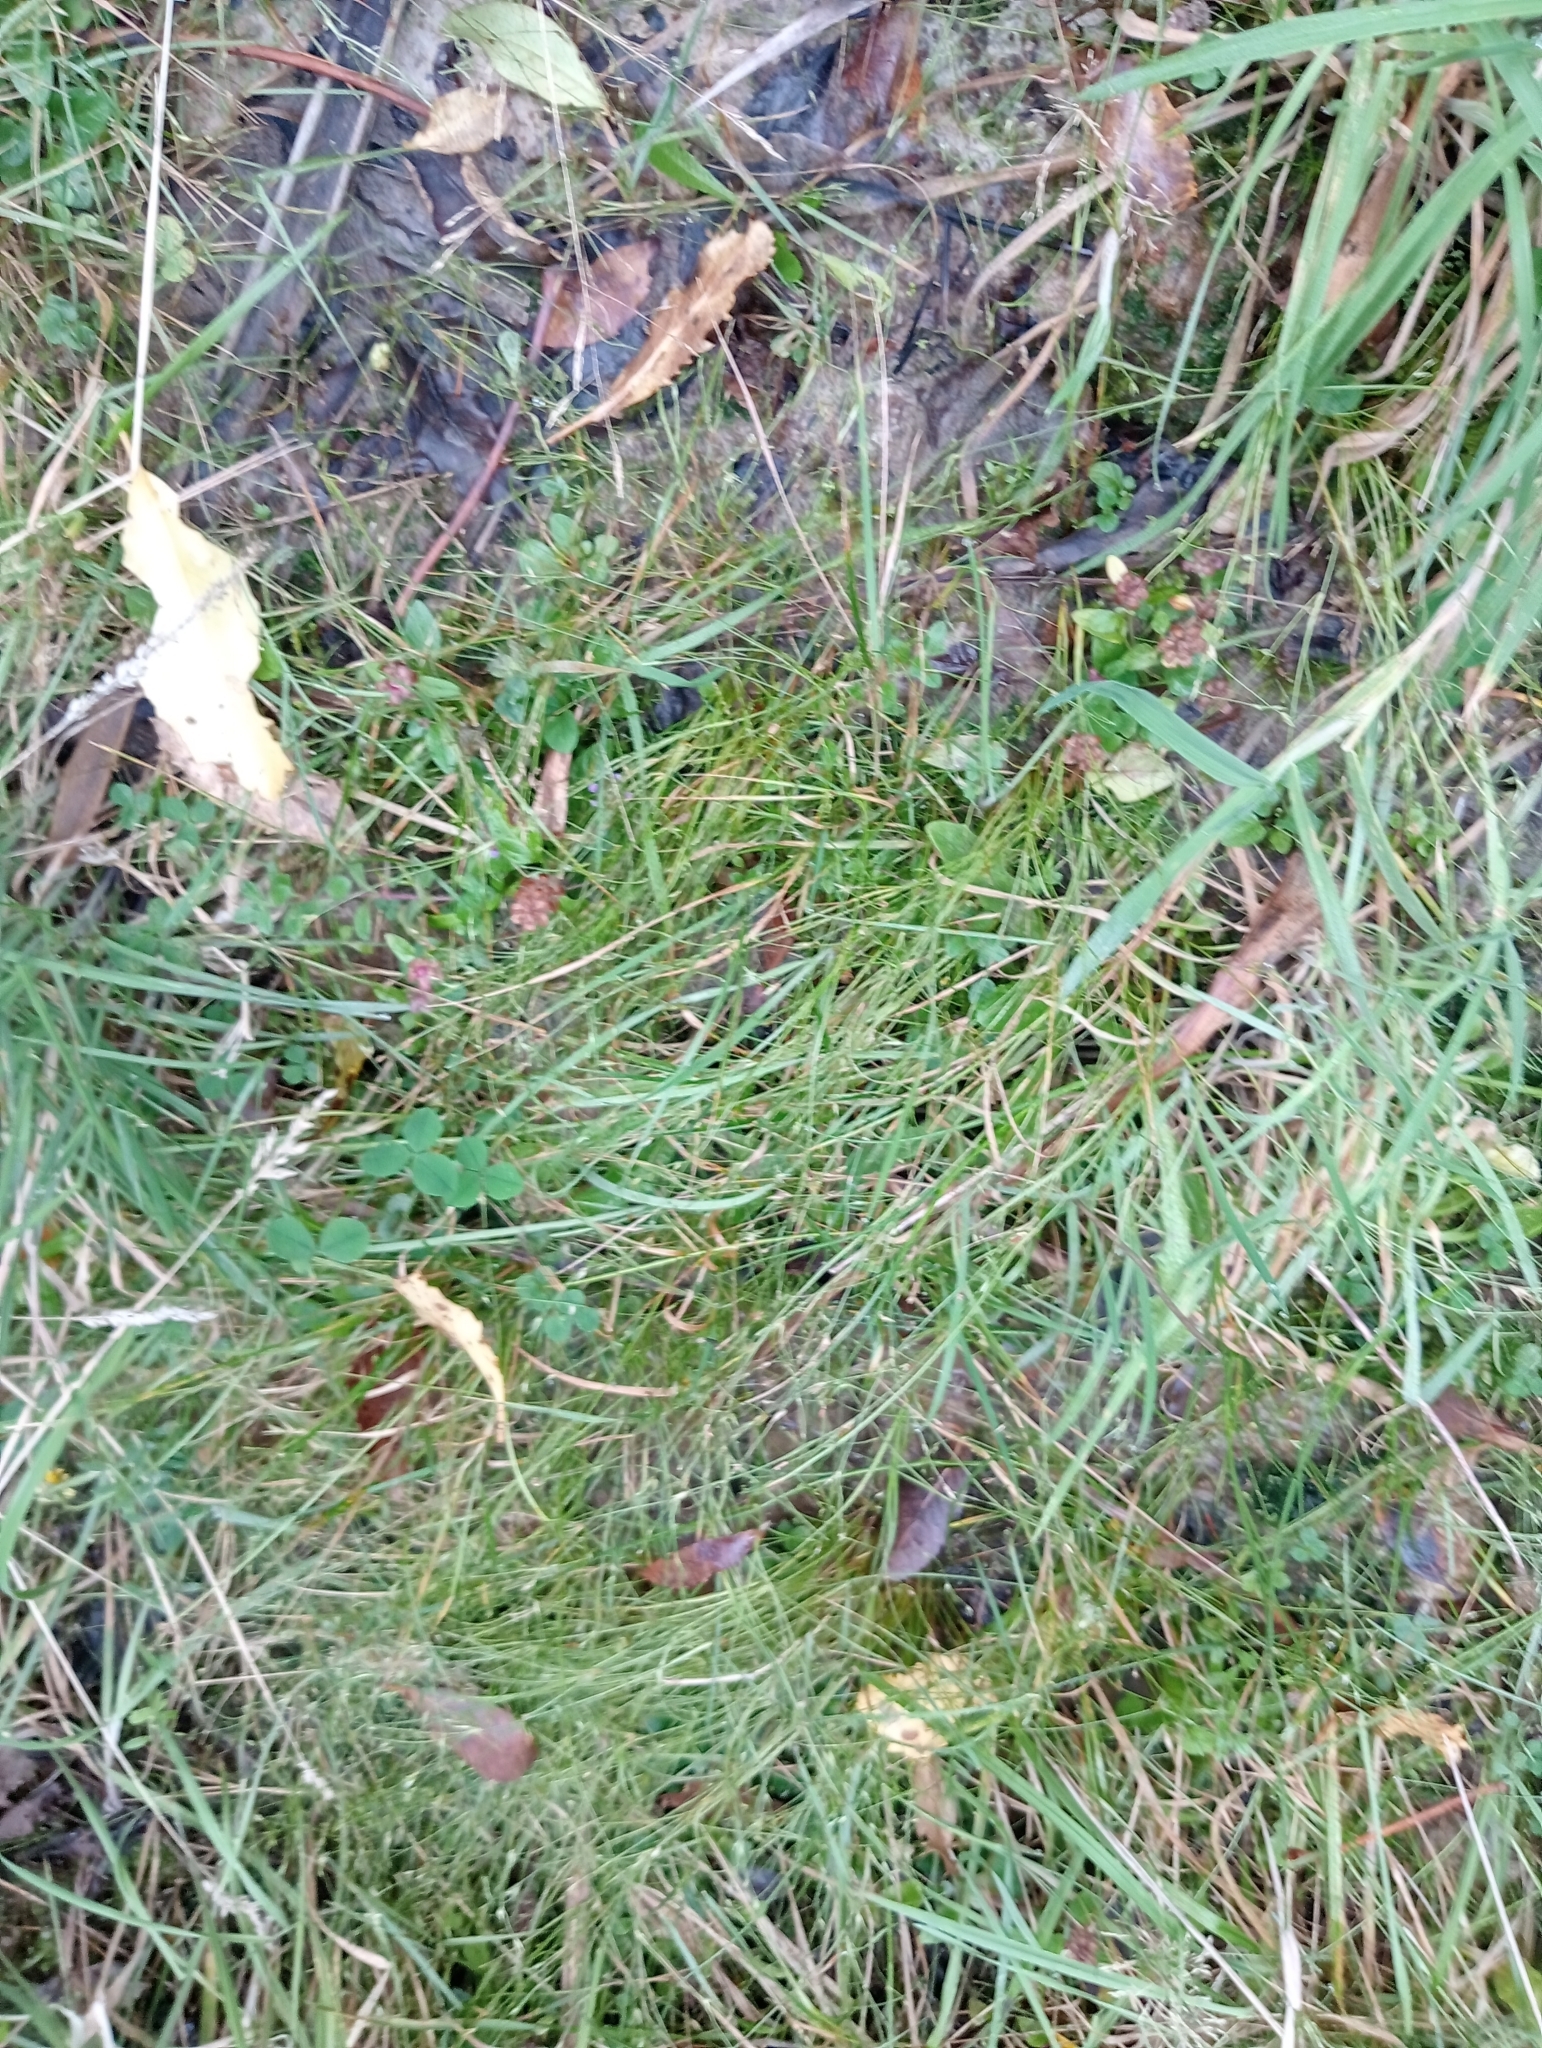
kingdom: Plantae
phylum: Tracheophyta
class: Liliopsida
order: Poales
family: Juncaceae
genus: Juncus
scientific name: Juncus bufonius
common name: Toad rush
